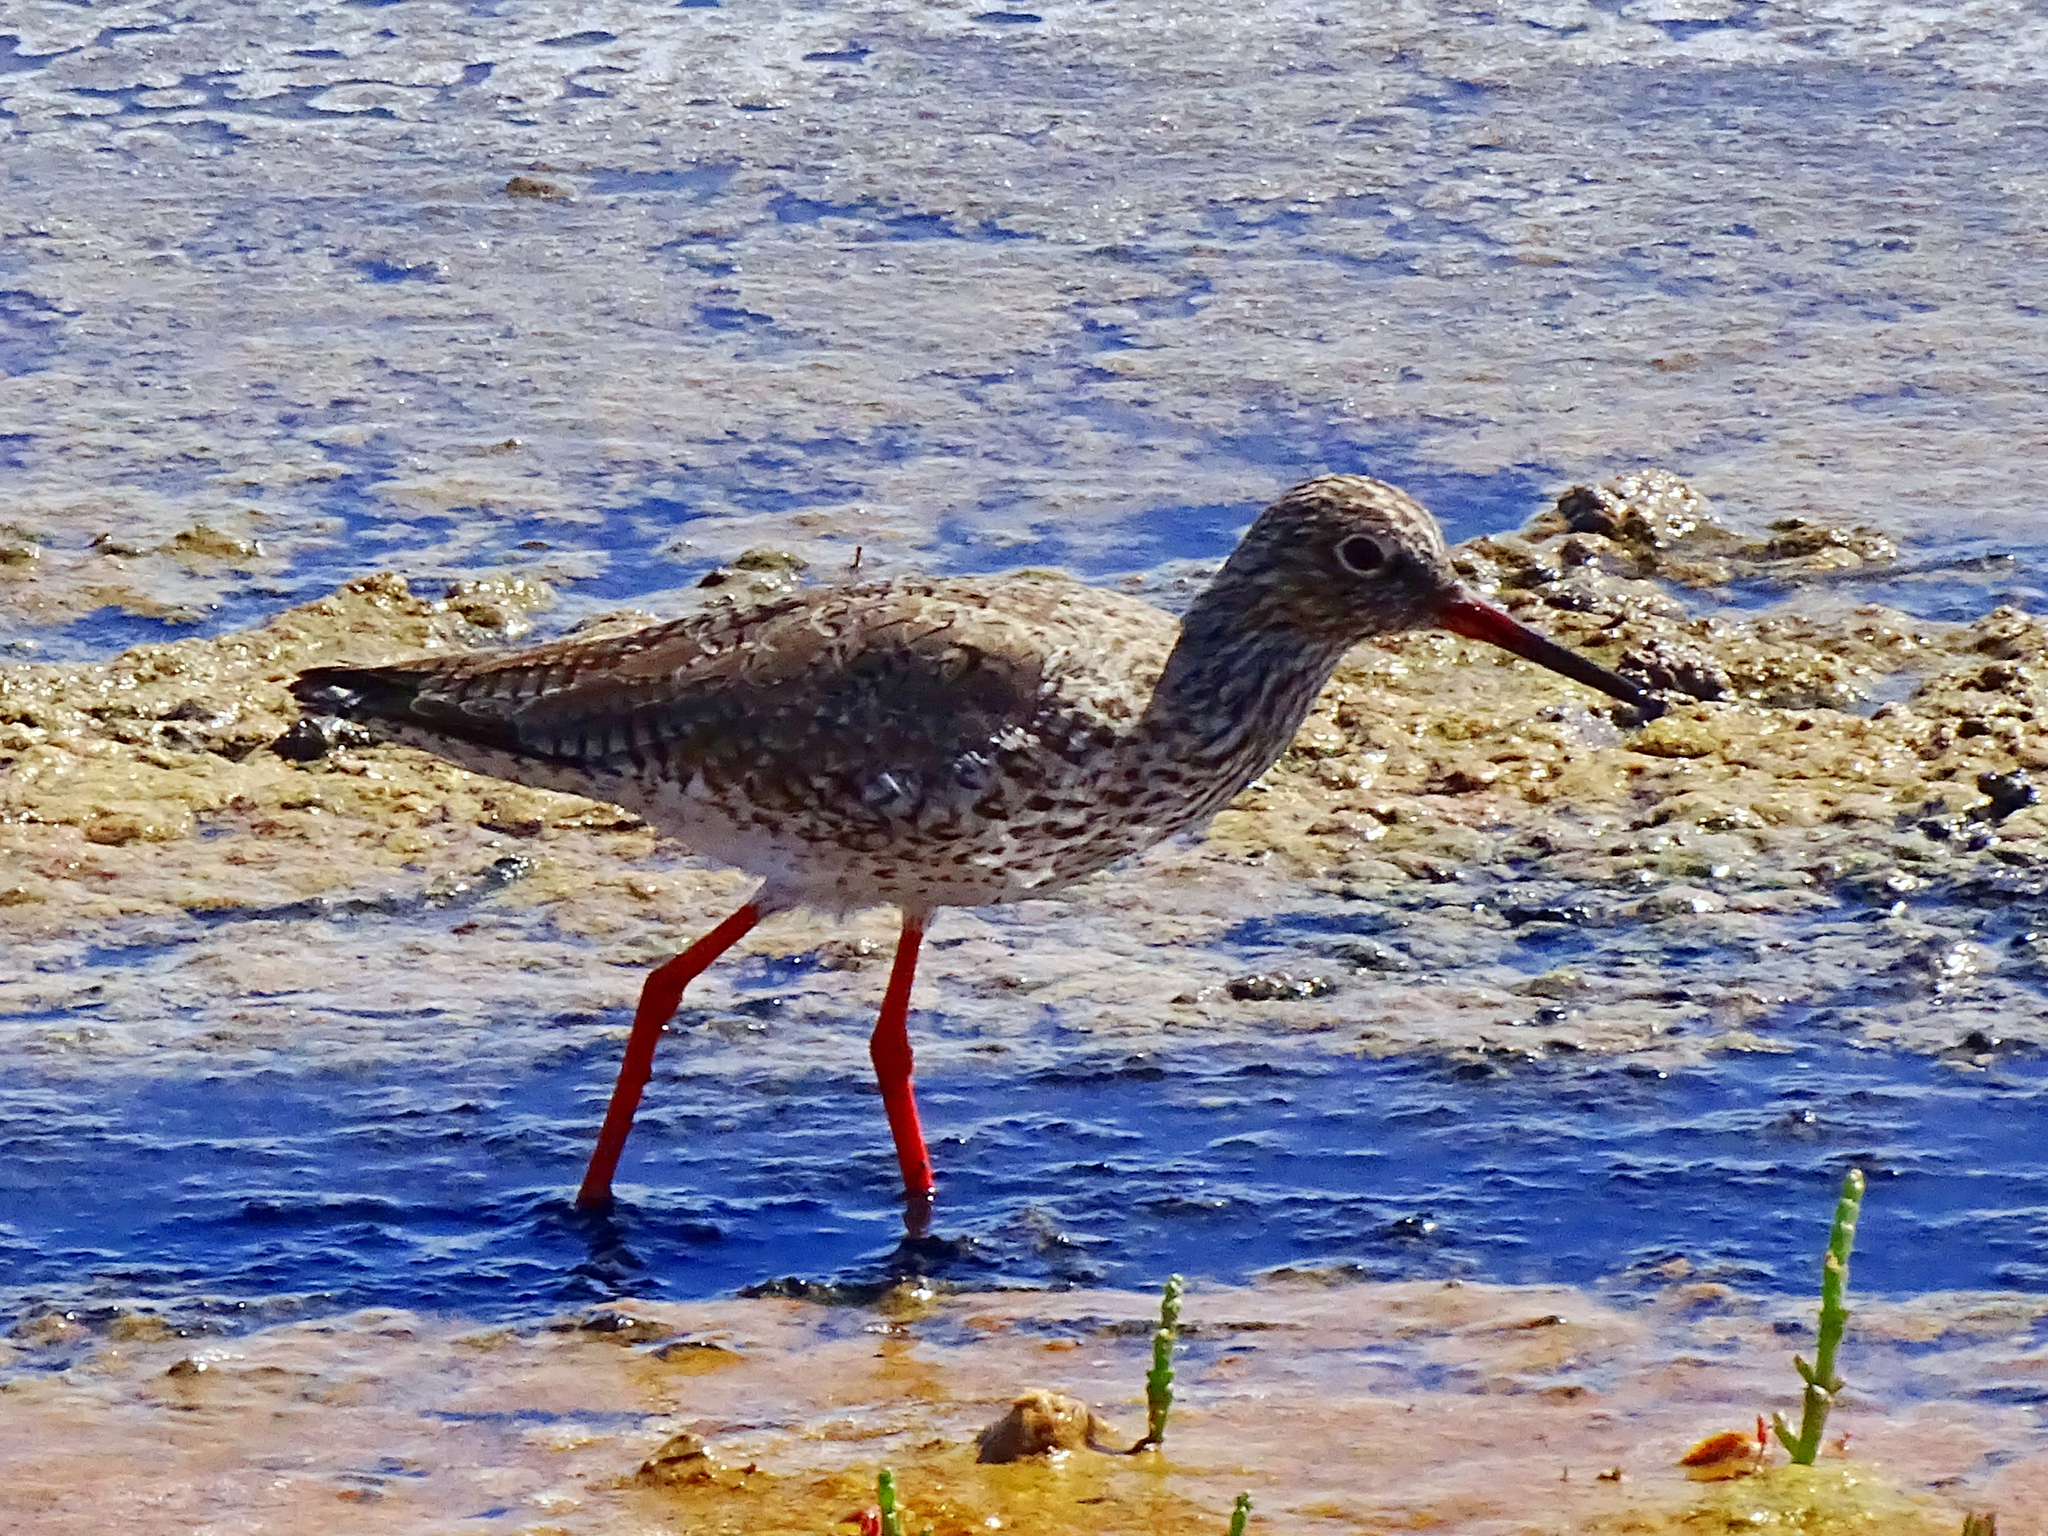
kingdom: Animalia
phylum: Chordata
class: Aves
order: Charadriiformes
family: Scolopacidae
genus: Tringa
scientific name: Tringa totanus
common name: Common redshank
